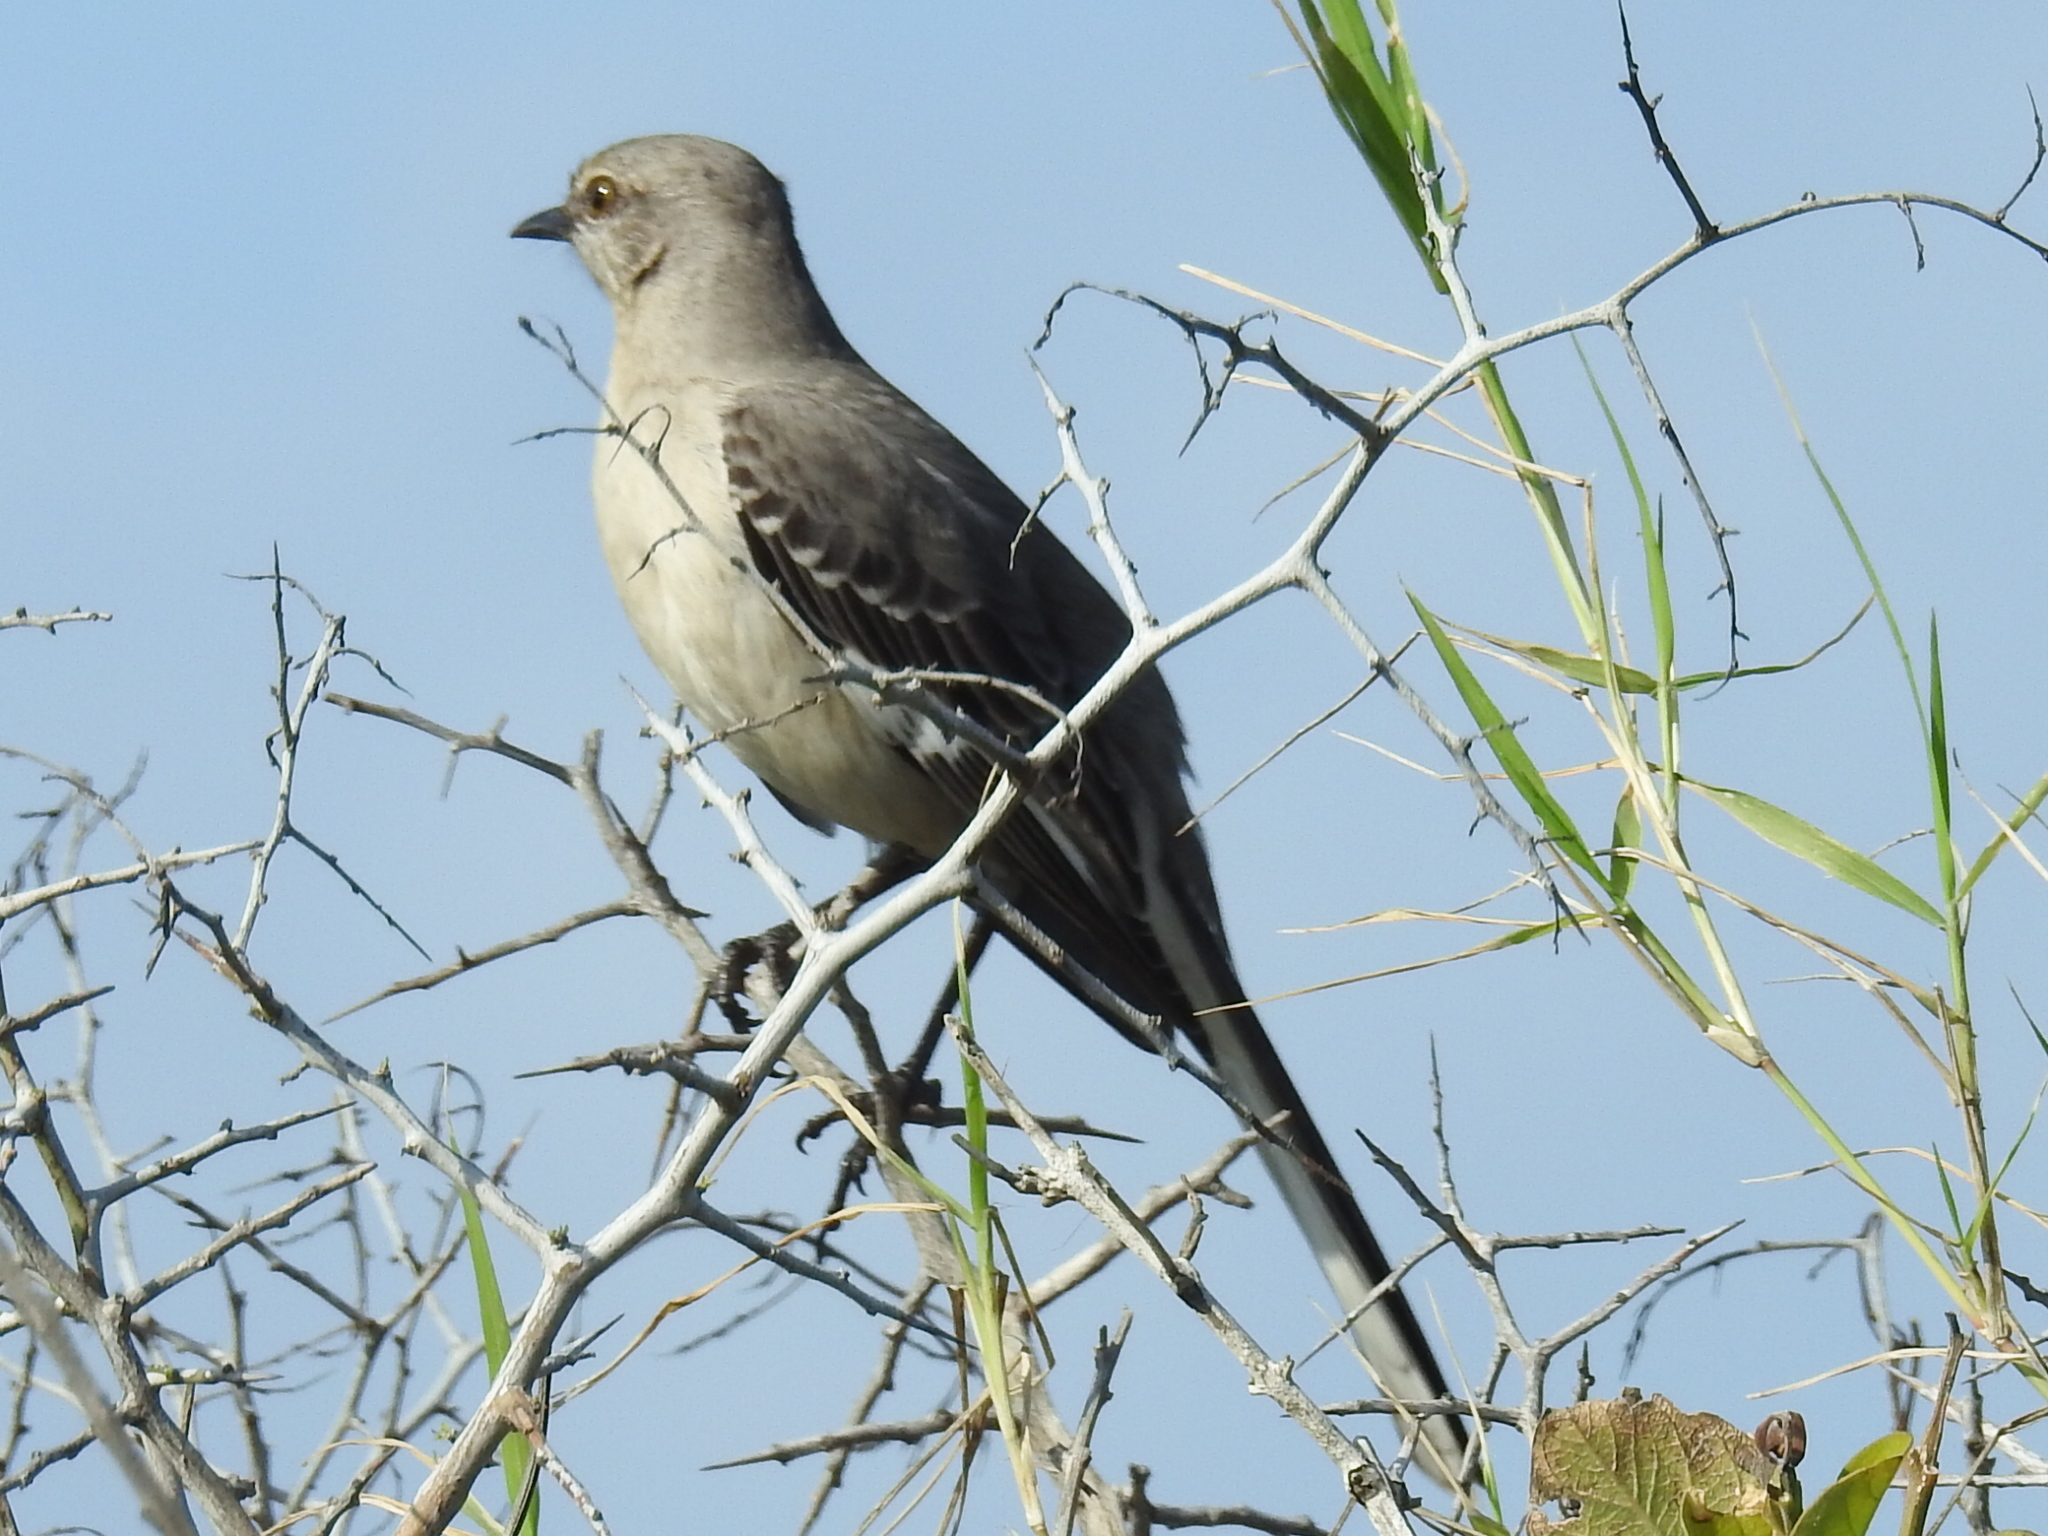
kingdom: Animalia
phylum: Chordata
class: Aves
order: Passeriformes
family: Mimidae
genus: Mimus
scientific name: Mimus polyglottos
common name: Northern mockingbird
